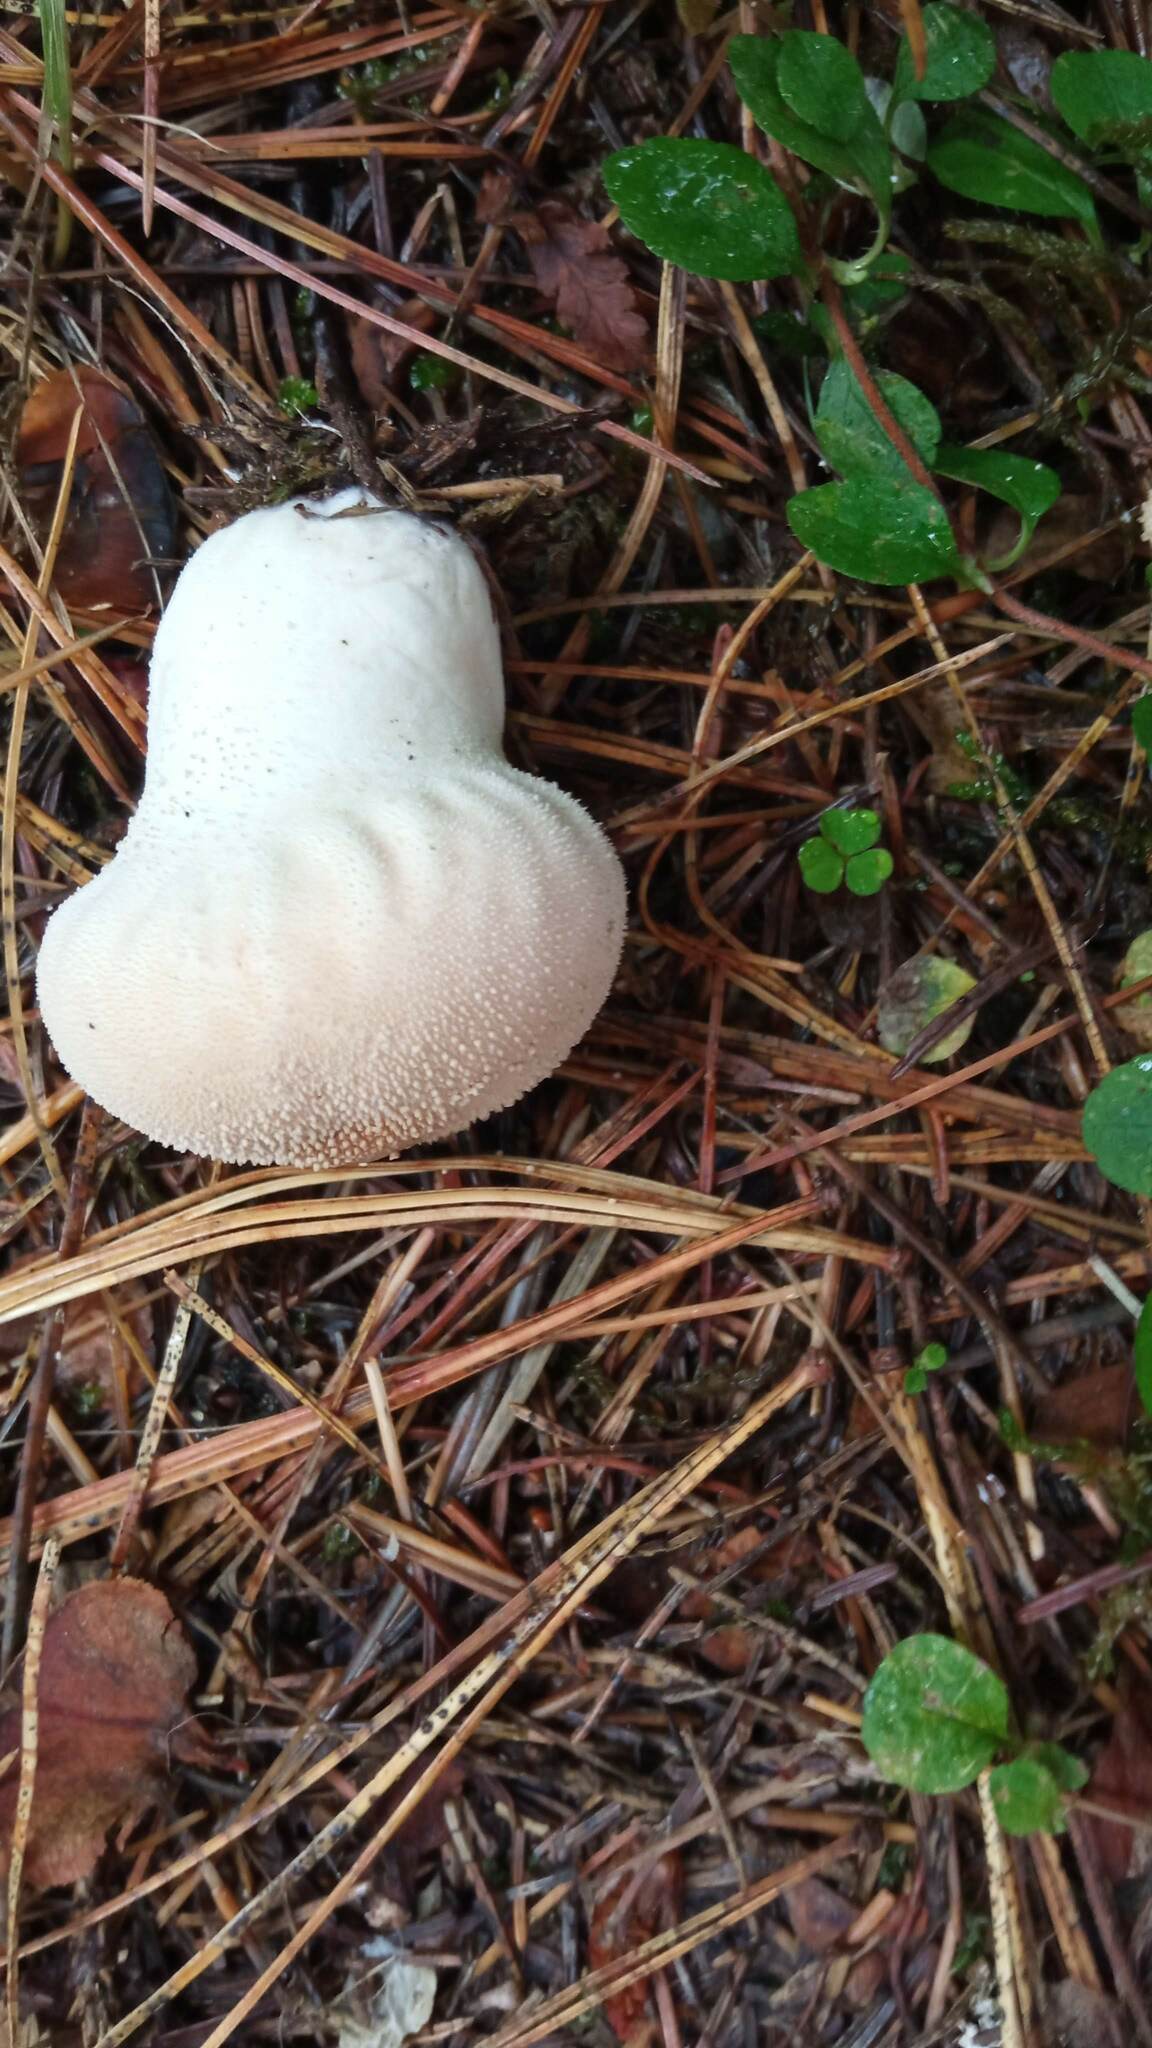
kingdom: Fungi
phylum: Basidiomycota
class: Agaricomycetes
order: Agaricales
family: Lycoperdaceae
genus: Lycoperdon
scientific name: Lycoperdon perlatum
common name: Common puffball
